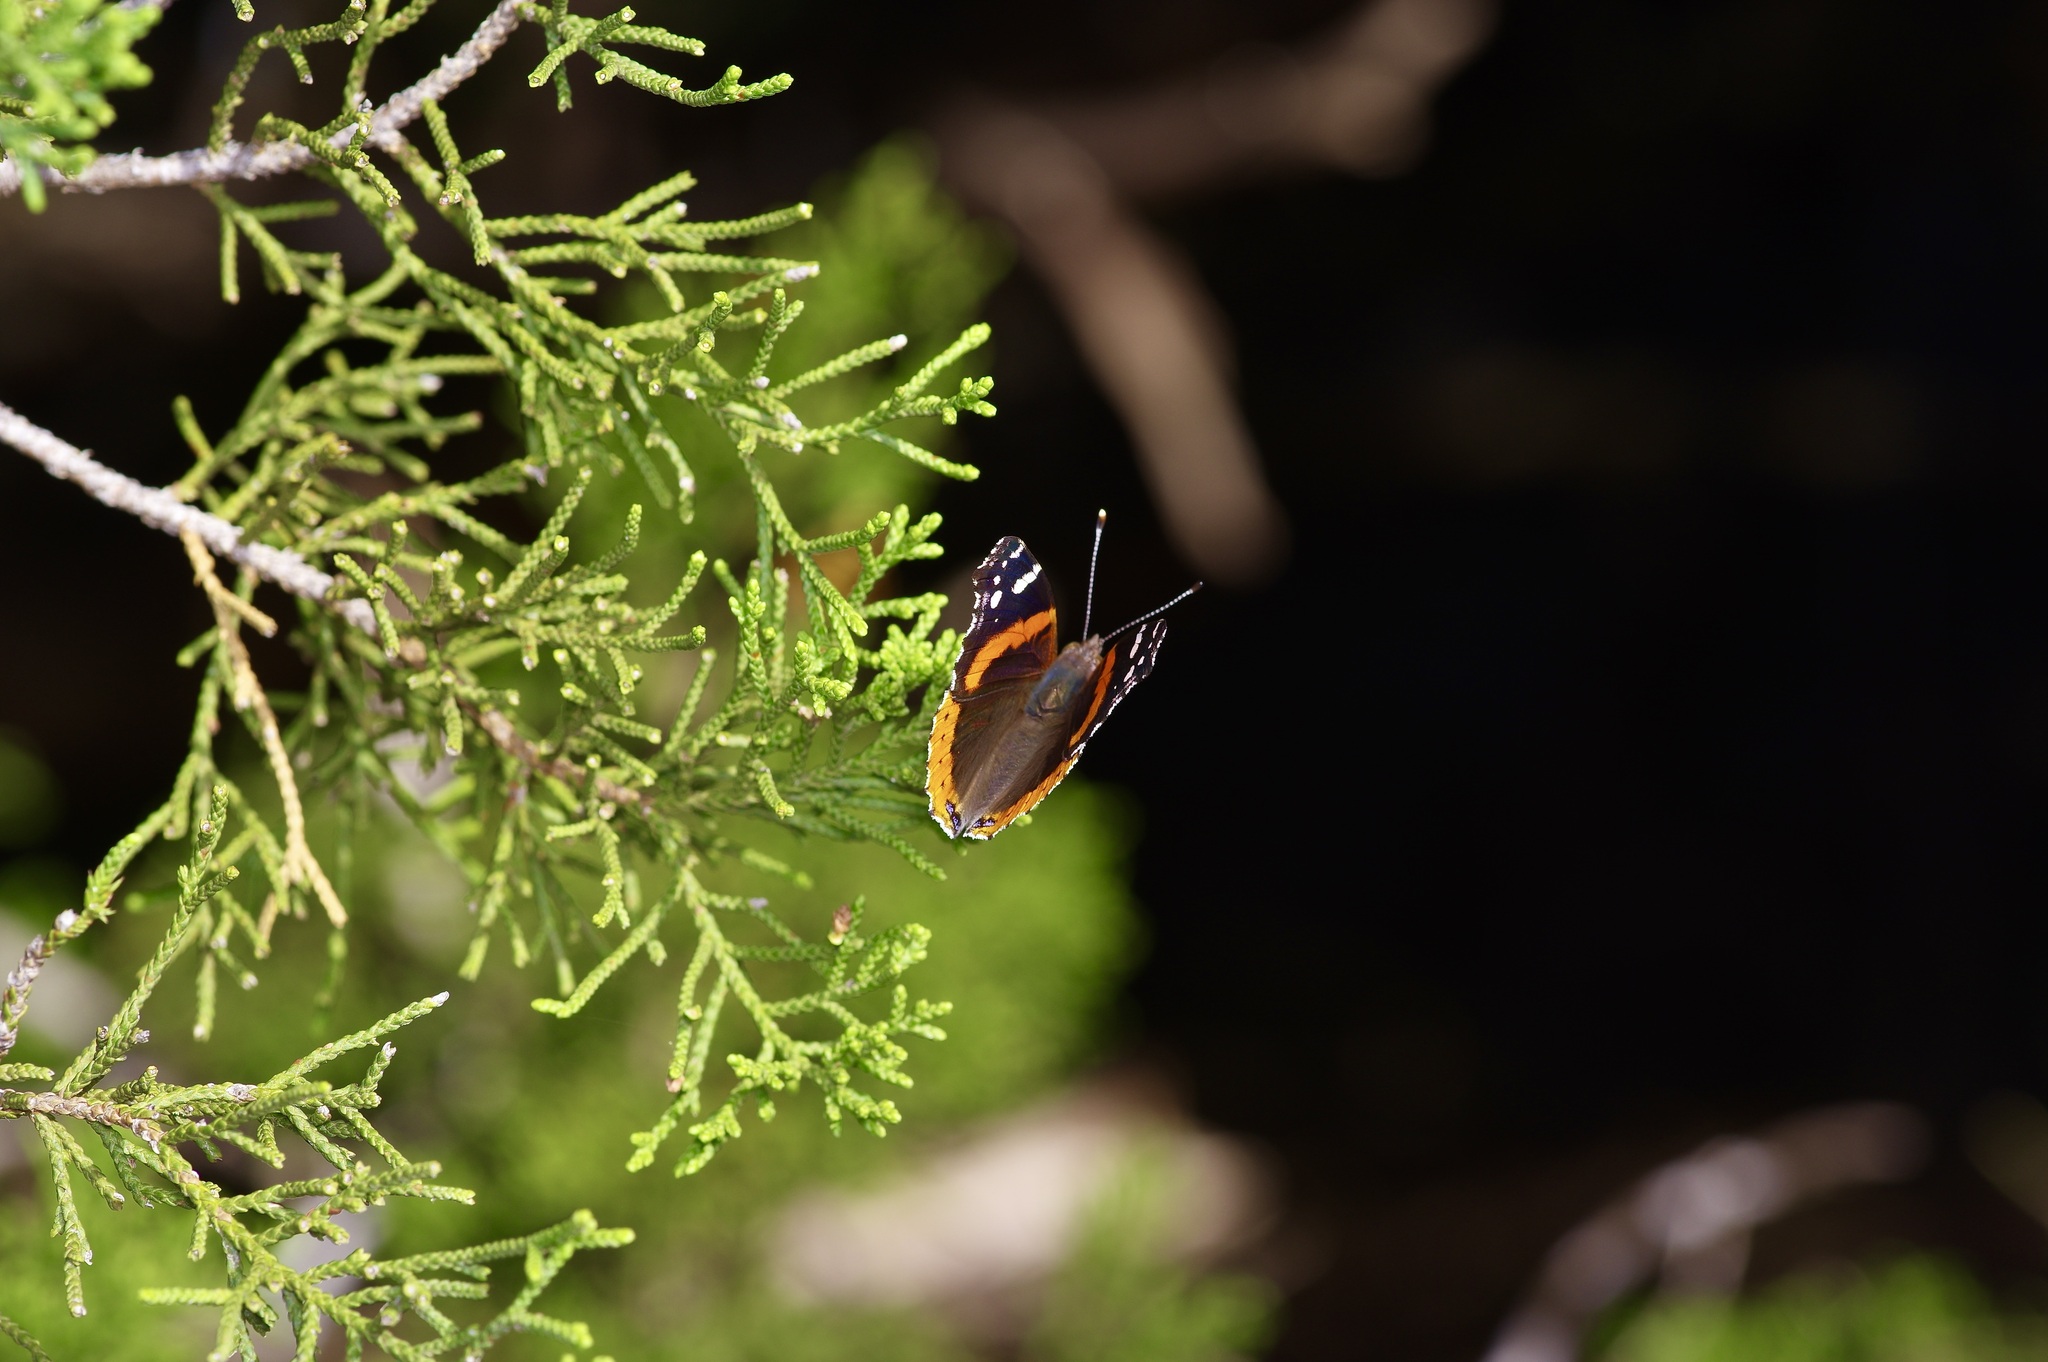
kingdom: Animalia
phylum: Arthropoda
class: Insecta
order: Lepidoptera
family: Nymphalidae
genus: Vanessa
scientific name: Vanessa atalanta
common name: Red admiral
